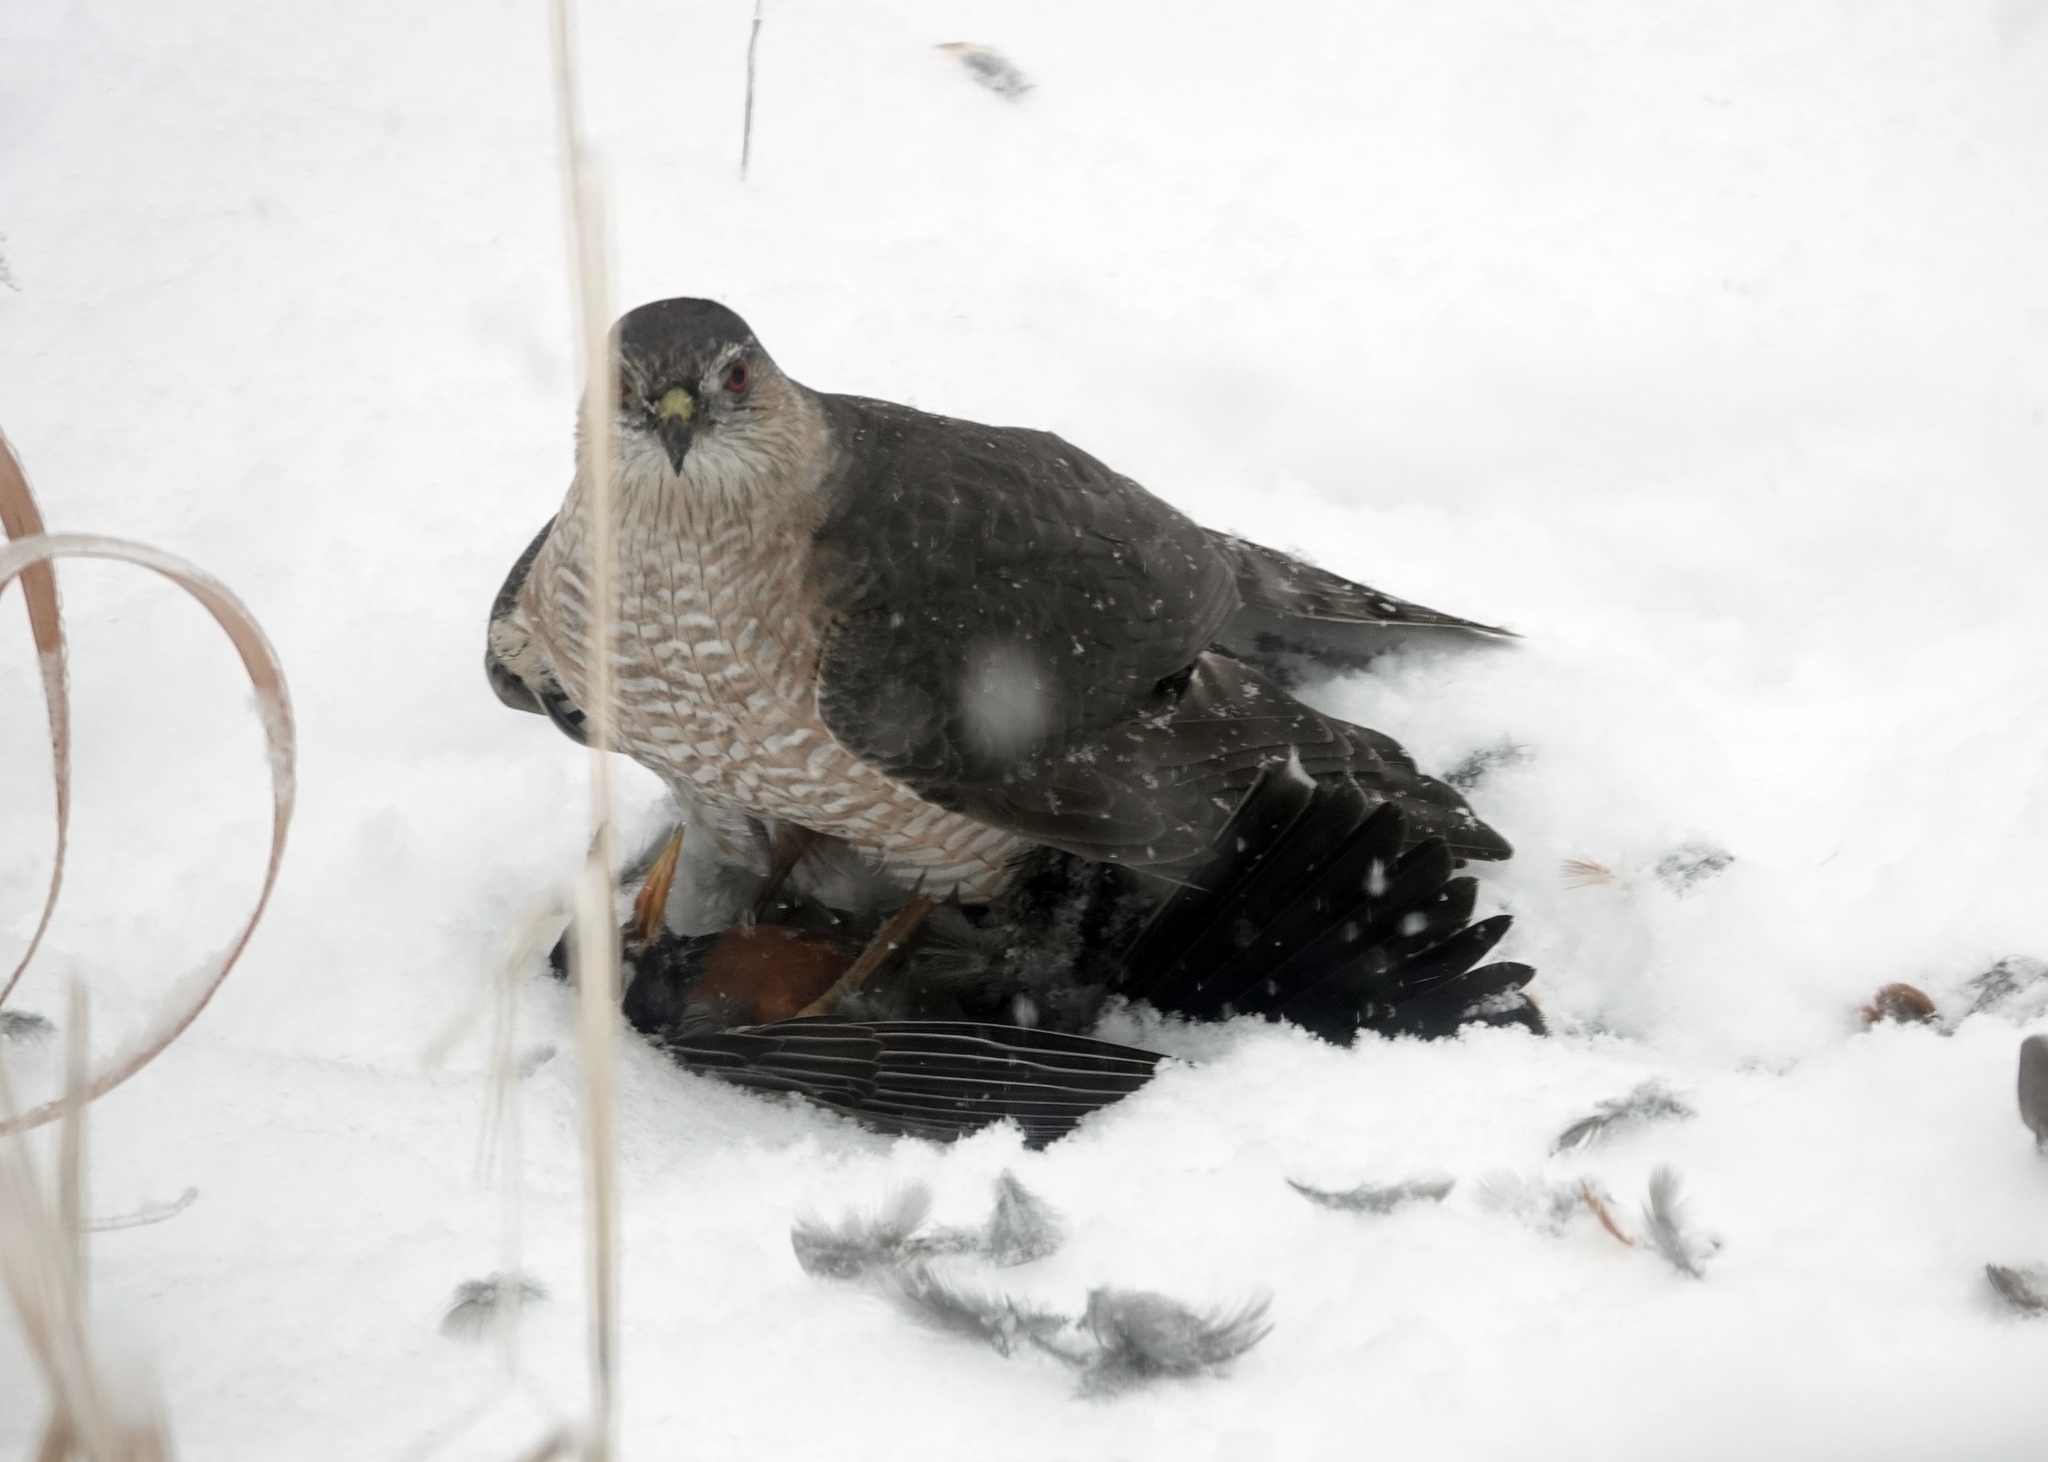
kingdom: Animalia
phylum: Chordata
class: Aves
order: Accipitriformes
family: Accipitridae
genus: Accipiter
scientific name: Accipiter striatus
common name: Sharp-shinned hawk
